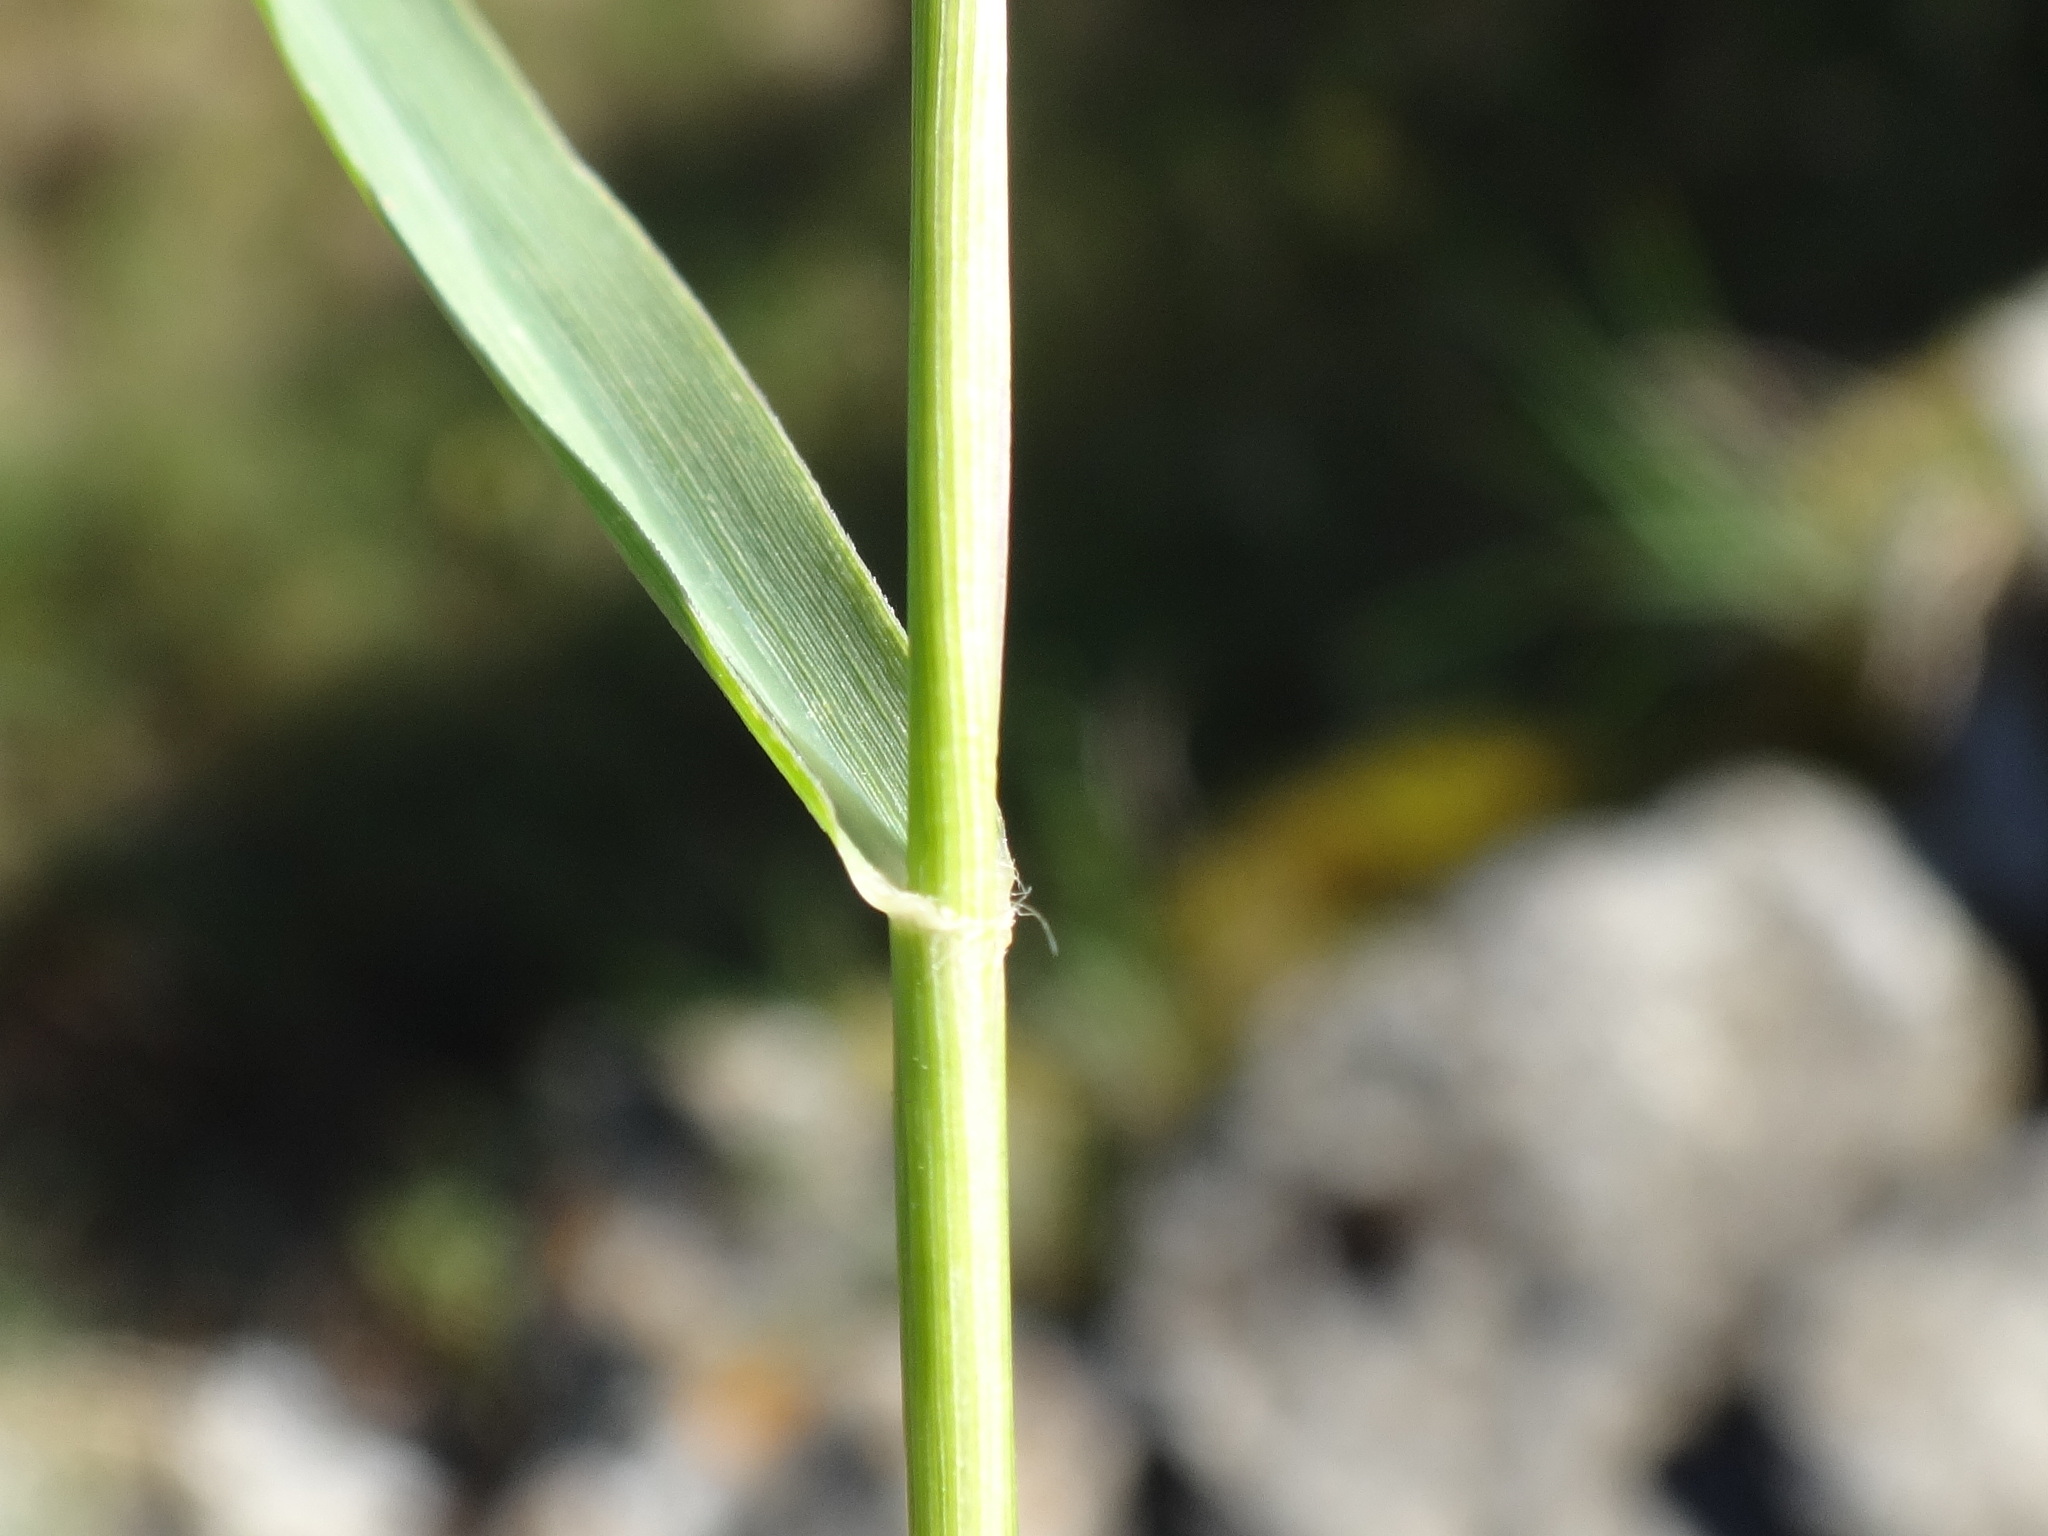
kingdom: Plantae
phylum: Tracheophyta
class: Liliopsida
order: Poales
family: Poaceae
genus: Cynodon
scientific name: Cynodon dactylon
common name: Bermuda grass
